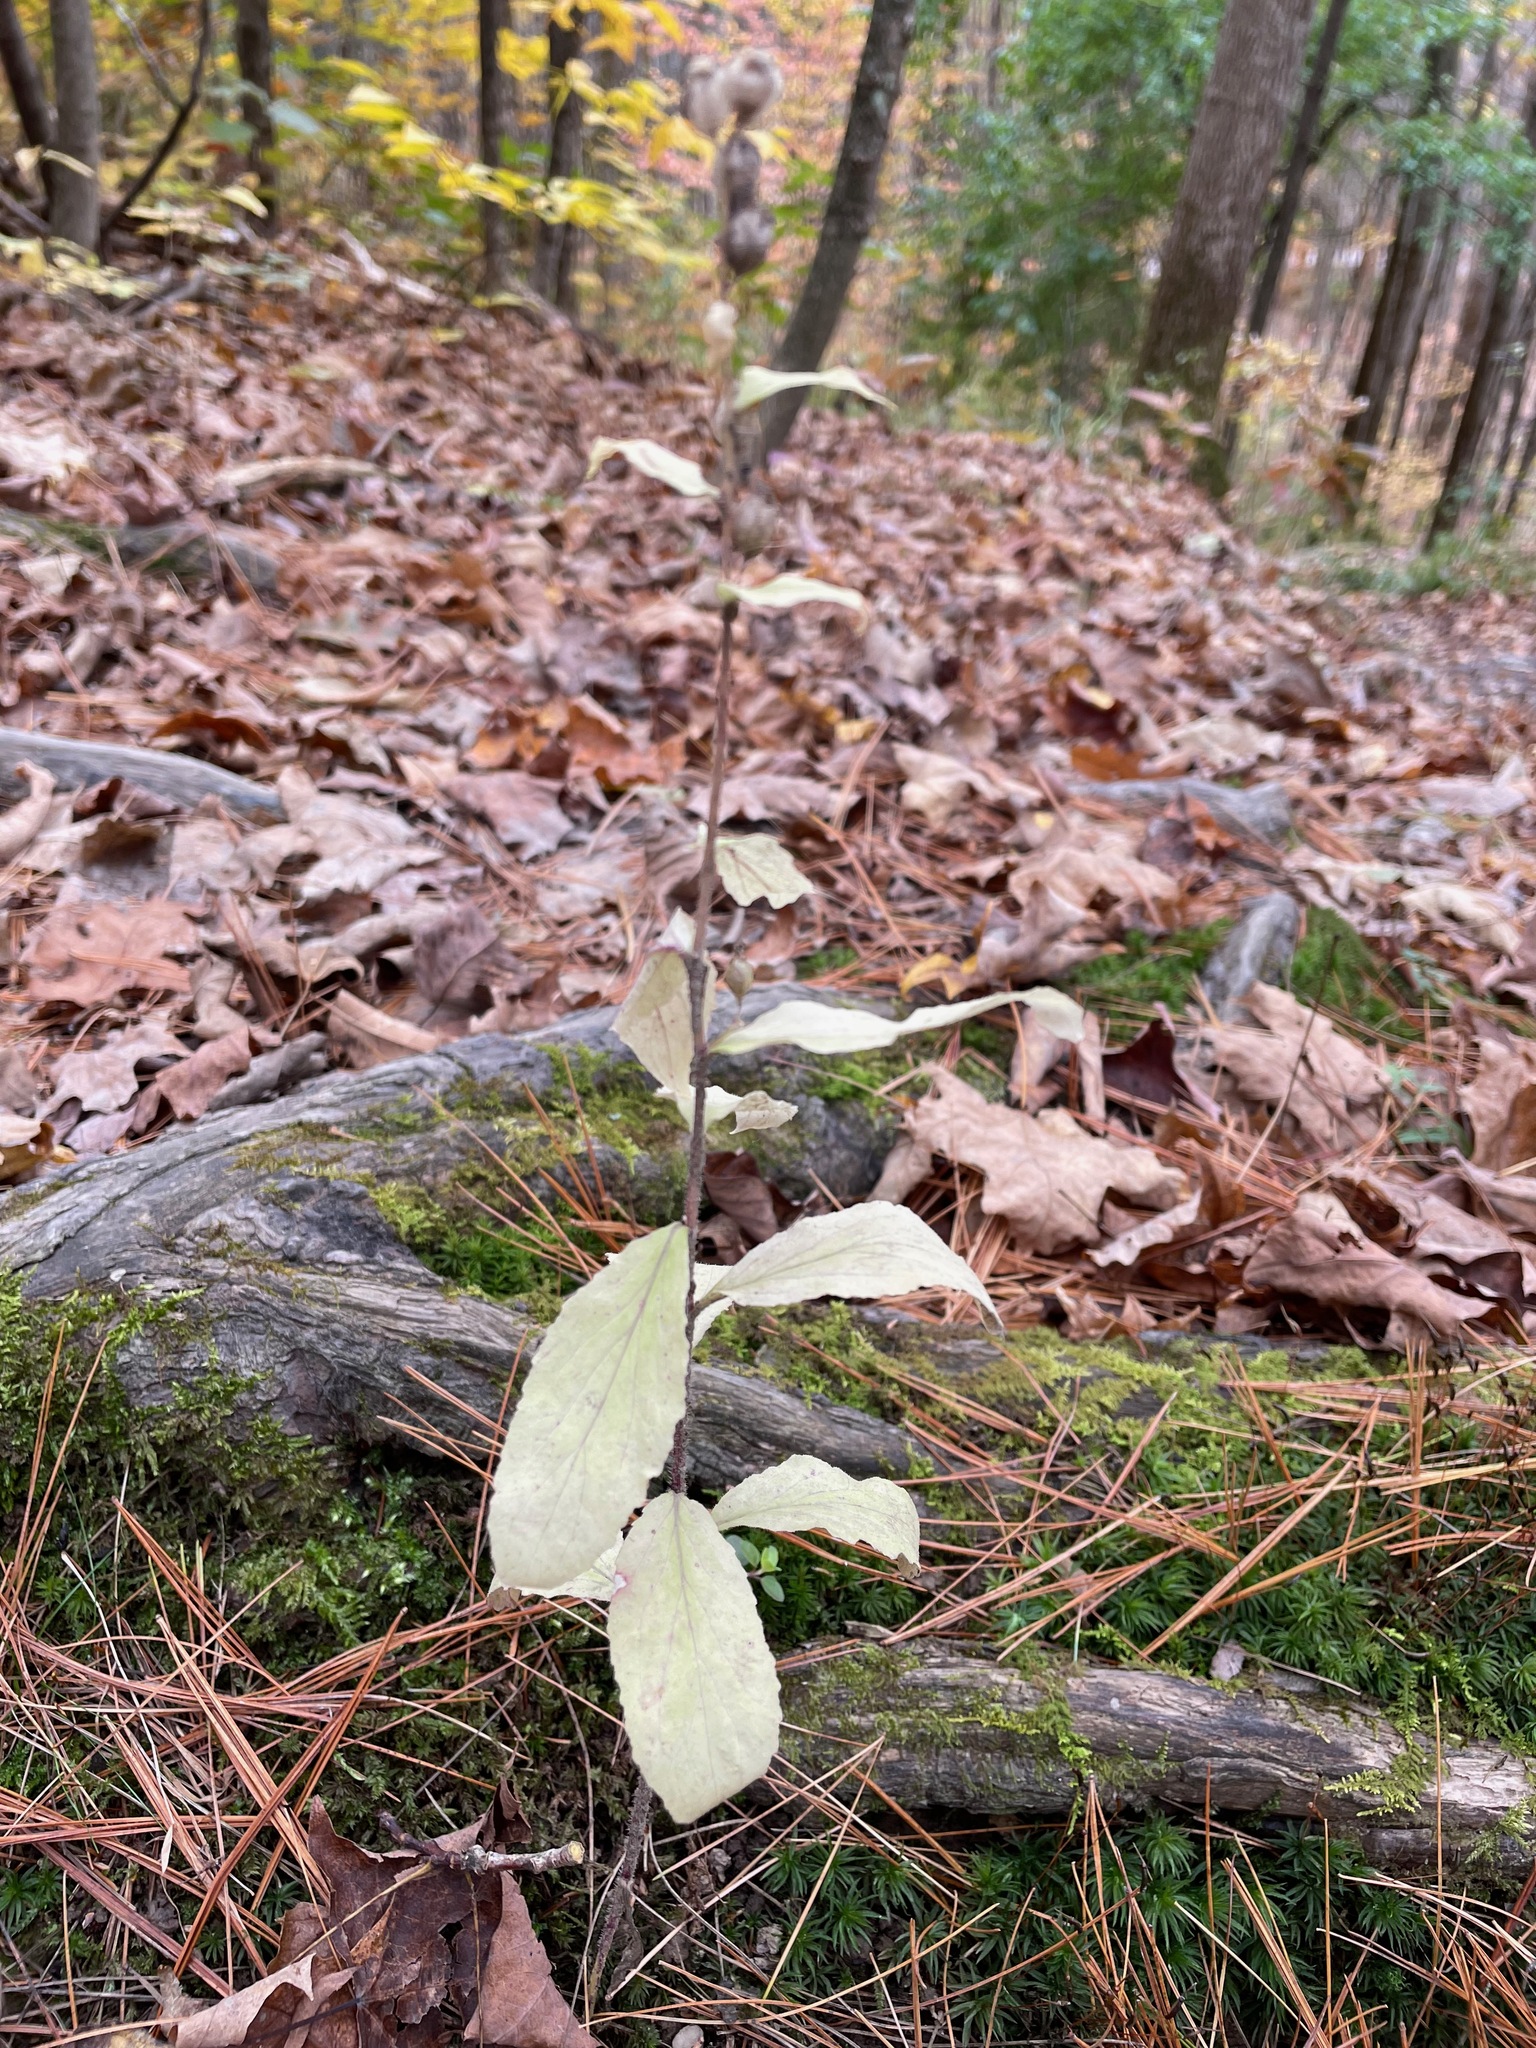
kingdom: Plantae
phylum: Tracheophyta
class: Magnoliopsida
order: Asterales
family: Campanulaceae
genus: Lobelia
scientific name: Lobelia inflata
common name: Indian tobacco
